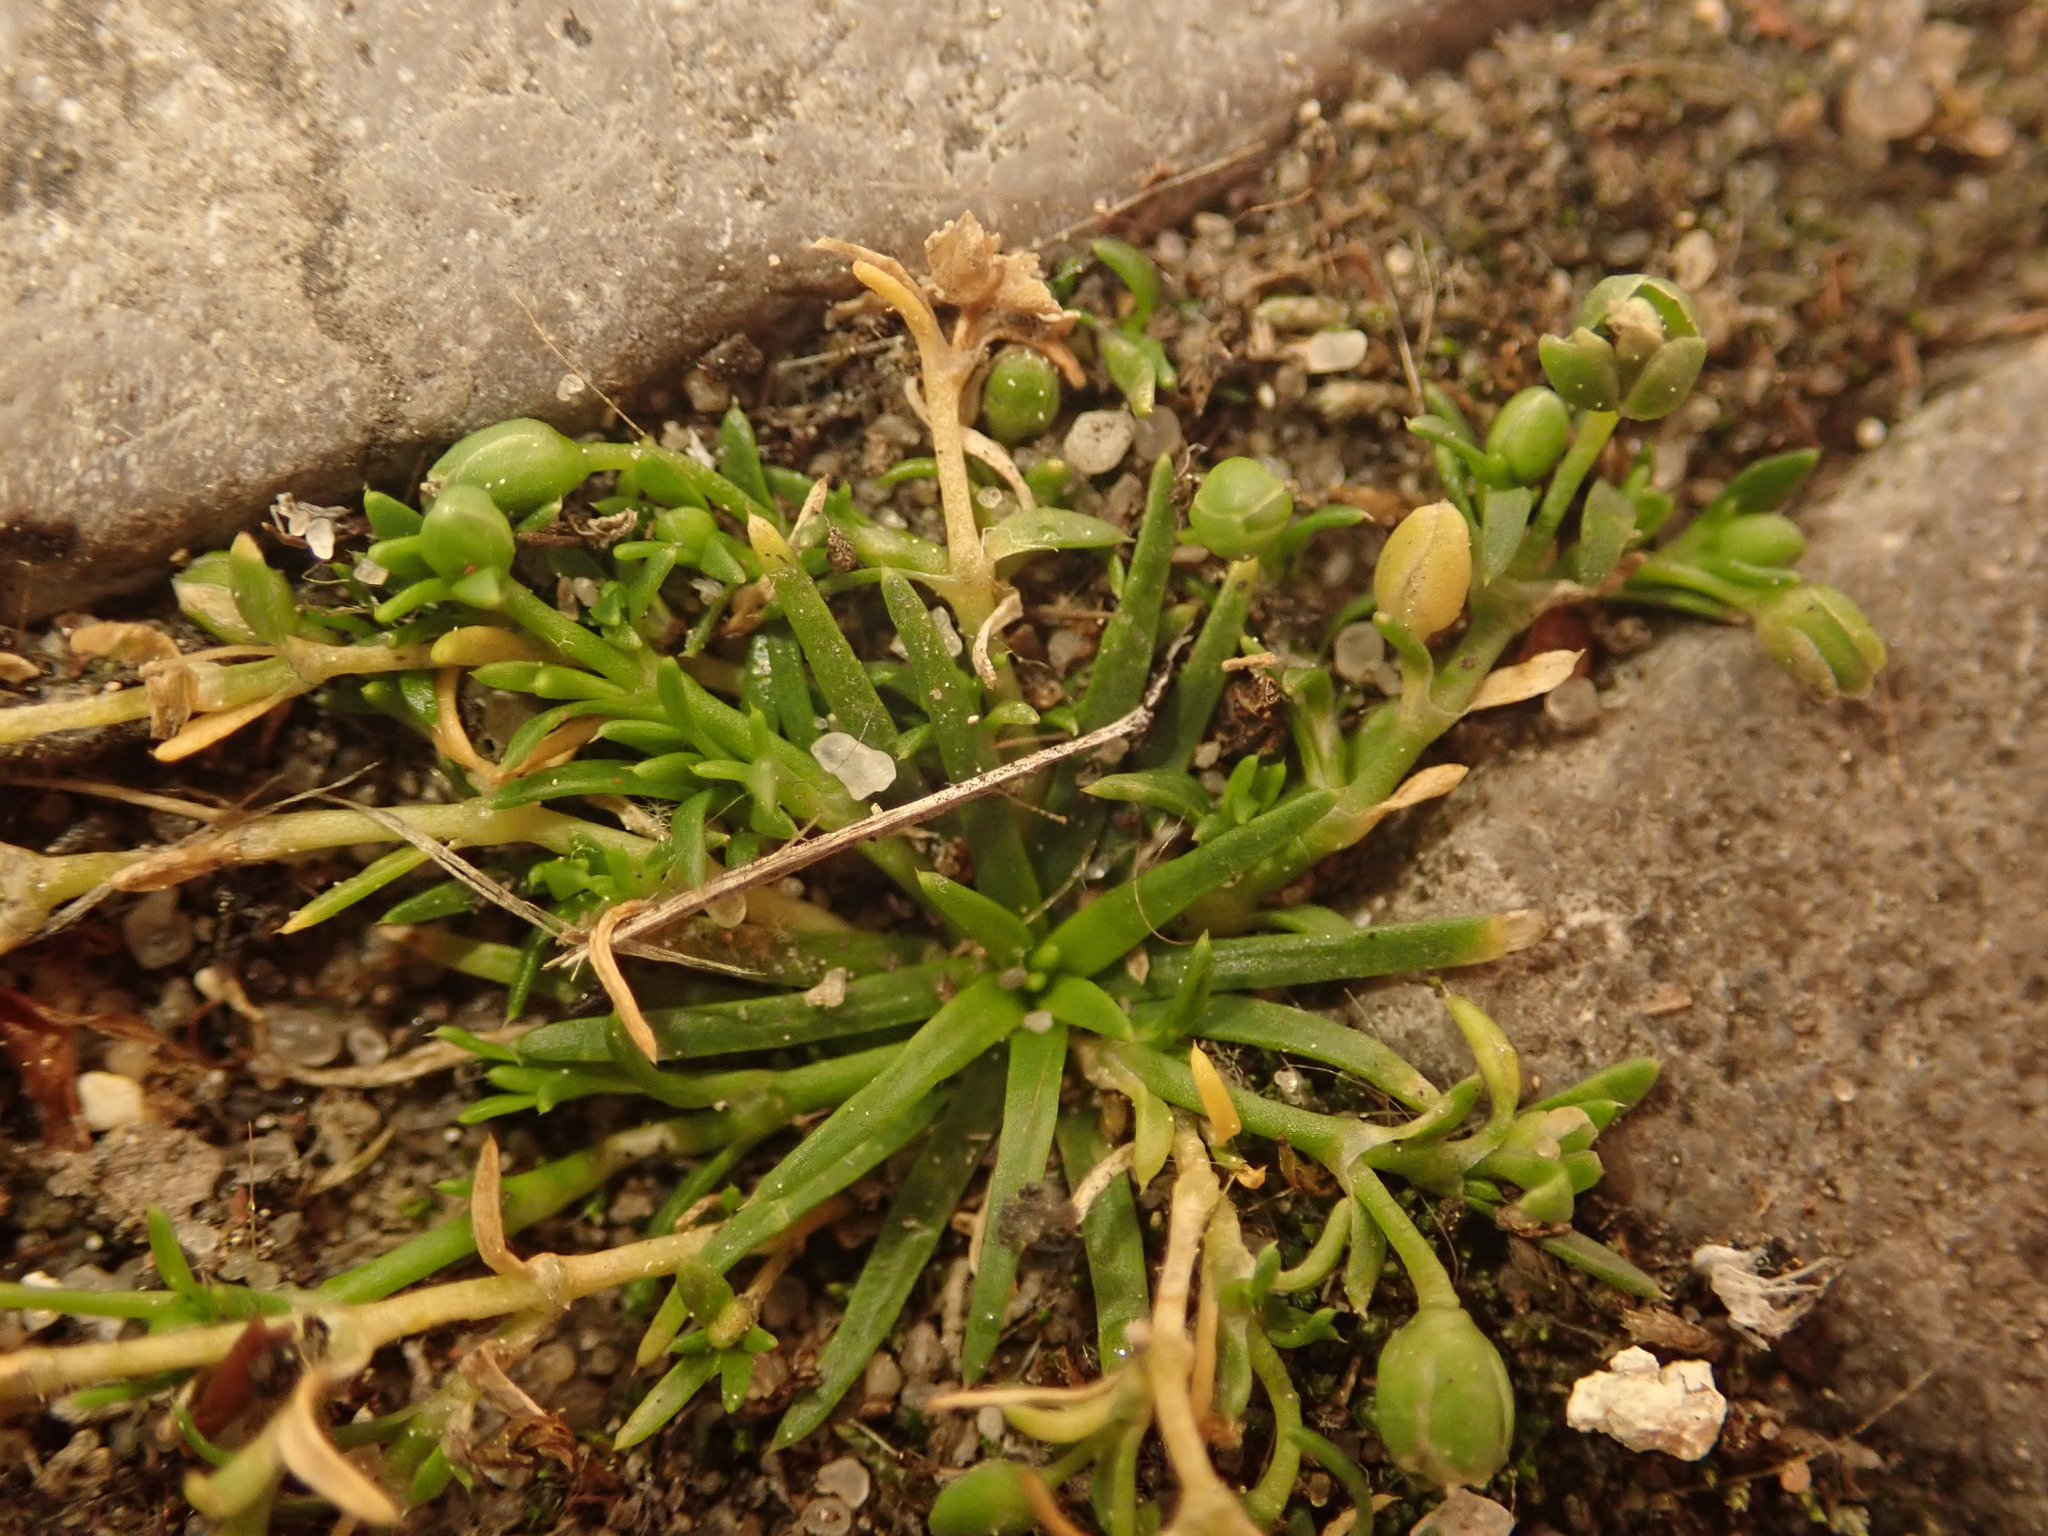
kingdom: Plantae
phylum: Tracheophyta
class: Magnoliopsida
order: Caryophyllales
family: Caryophyllaceae
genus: Sagina
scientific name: Sagina procumbens
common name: Procumbent pearlwort
